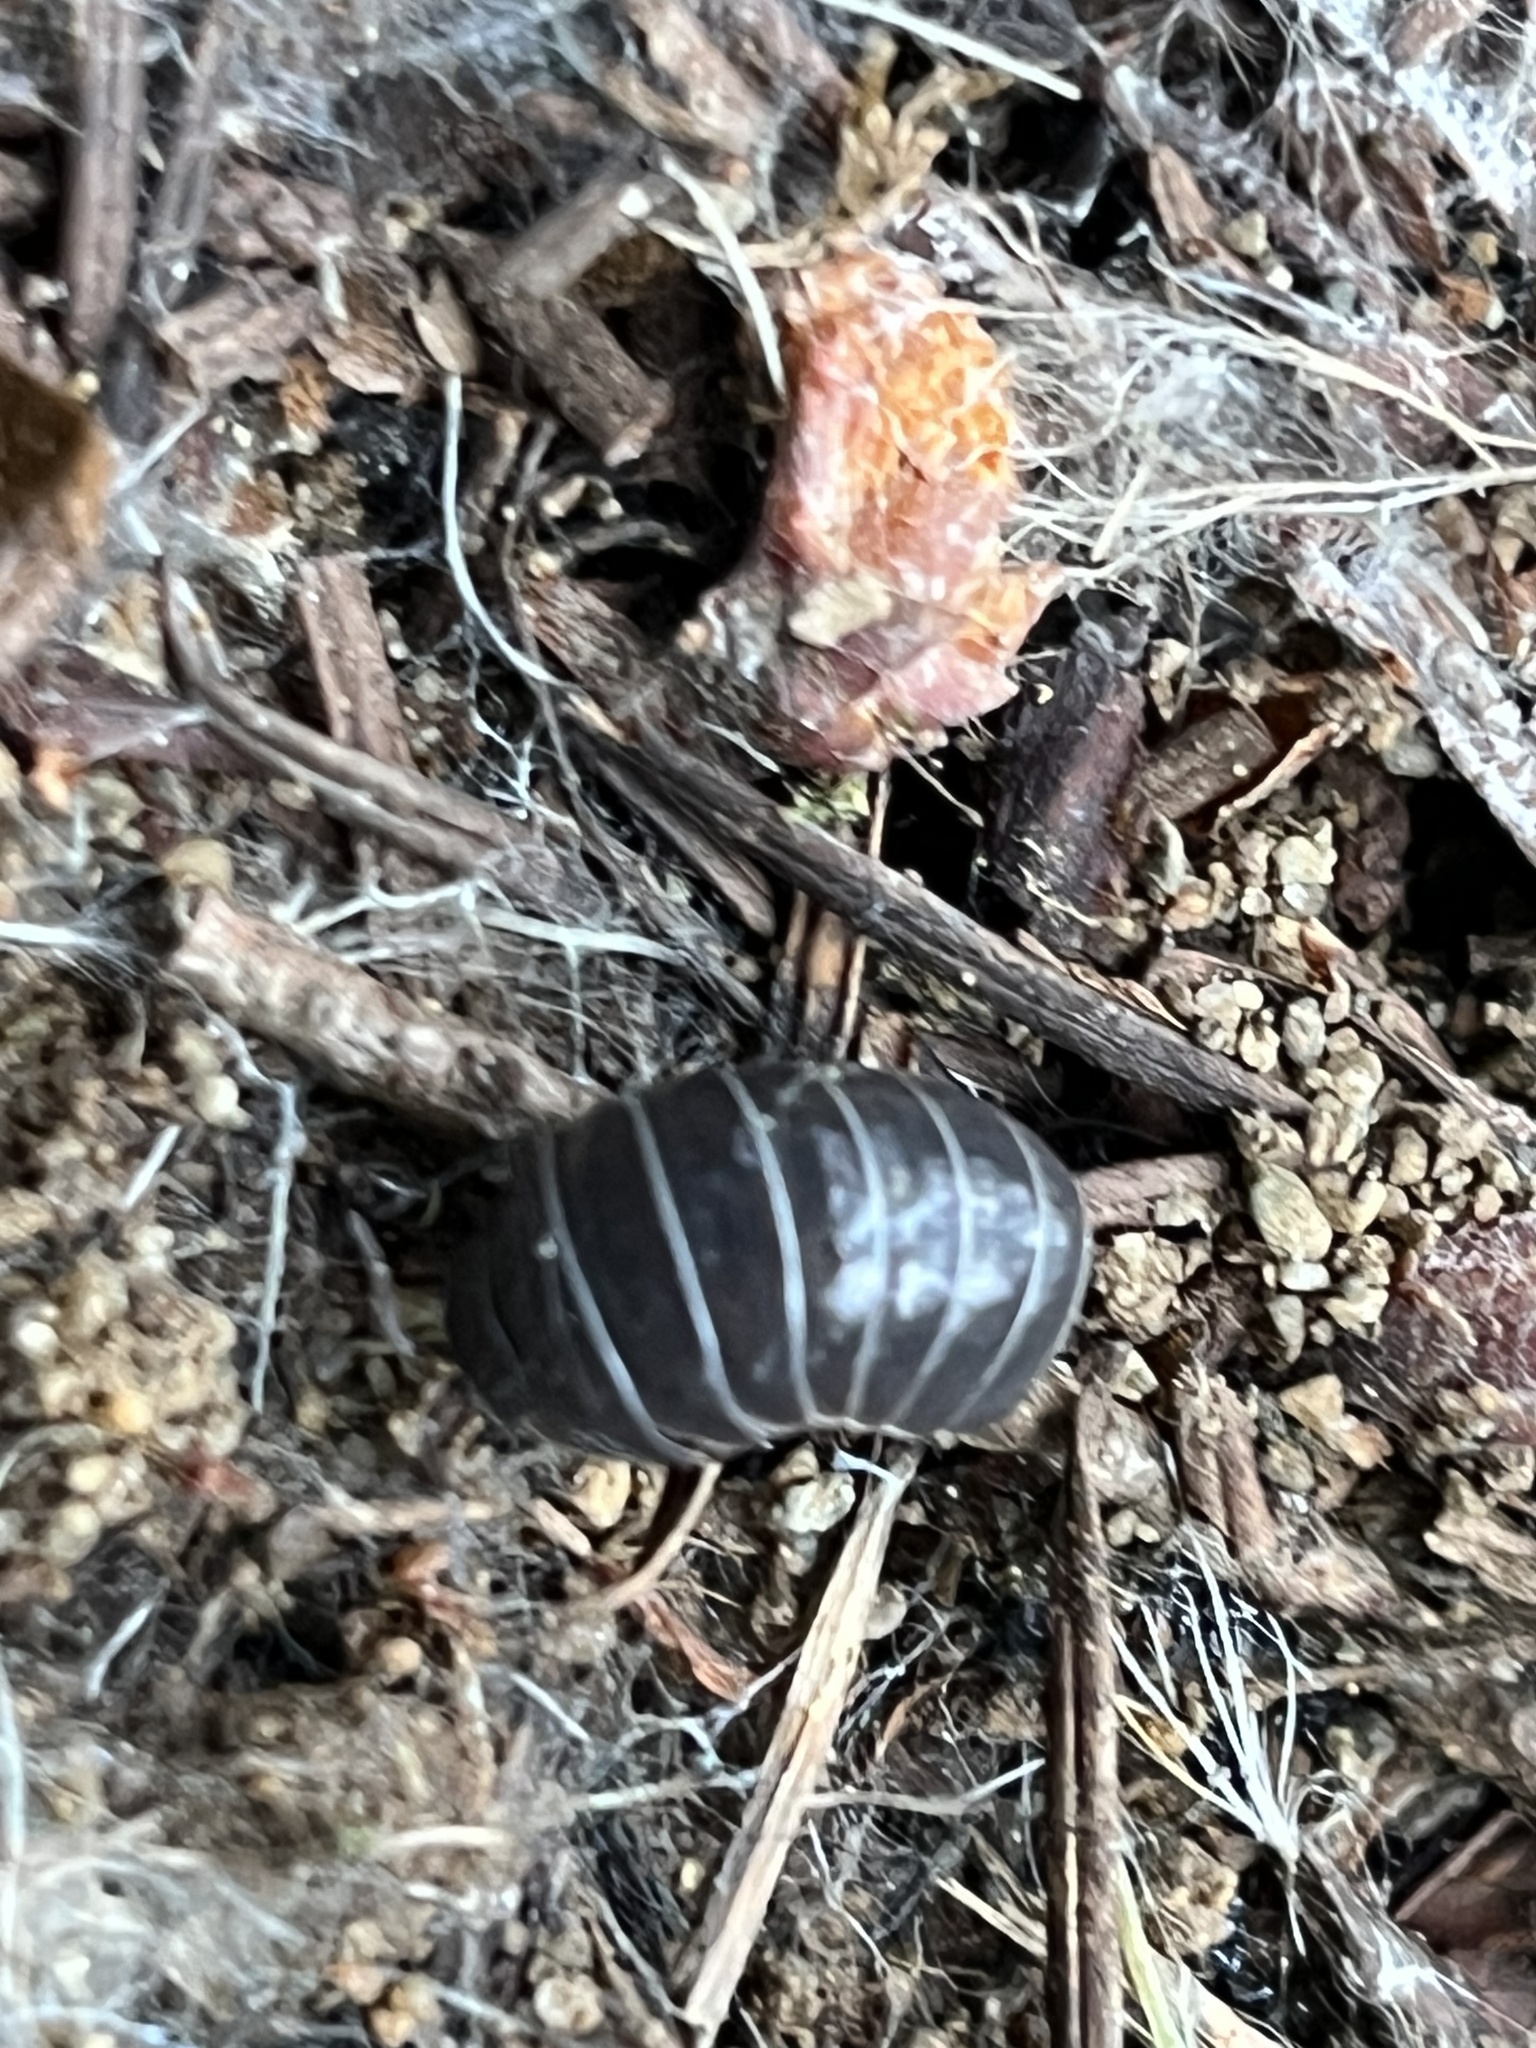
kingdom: Animalia
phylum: Arthropoda
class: Malacostraca
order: Isopoda
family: Armadillidiidae
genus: Armadillidium
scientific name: Armadillidium vulgare
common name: Common pill woodlouse
